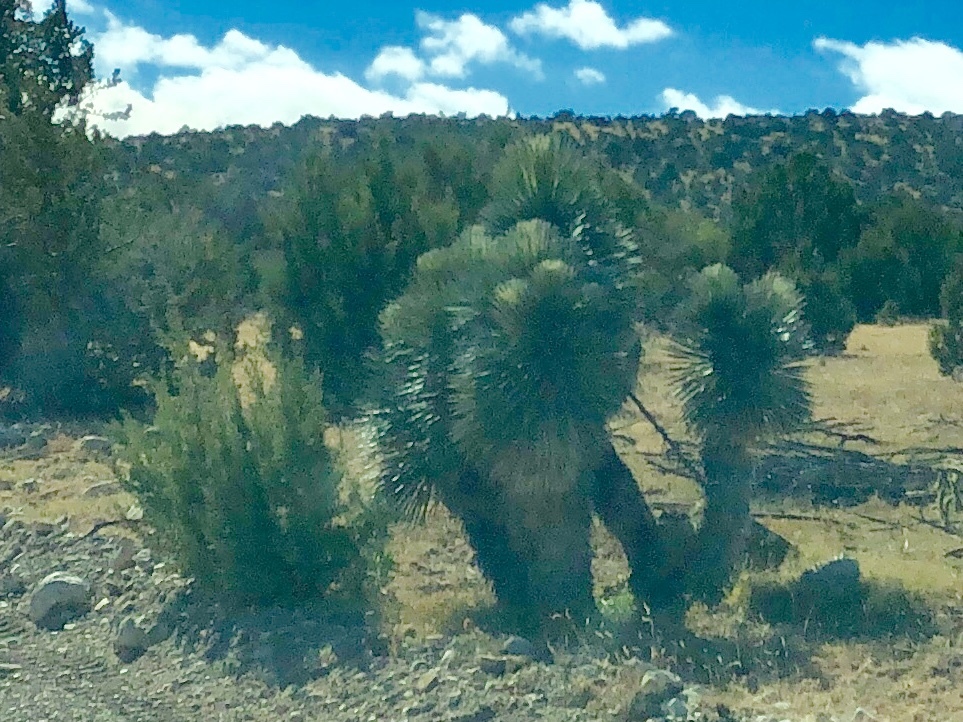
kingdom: Plantae
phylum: Tracheophyta
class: Liliopsida
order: Asparagales
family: Asparagaceae
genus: Yucca
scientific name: Yucca elata
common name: Palmella
